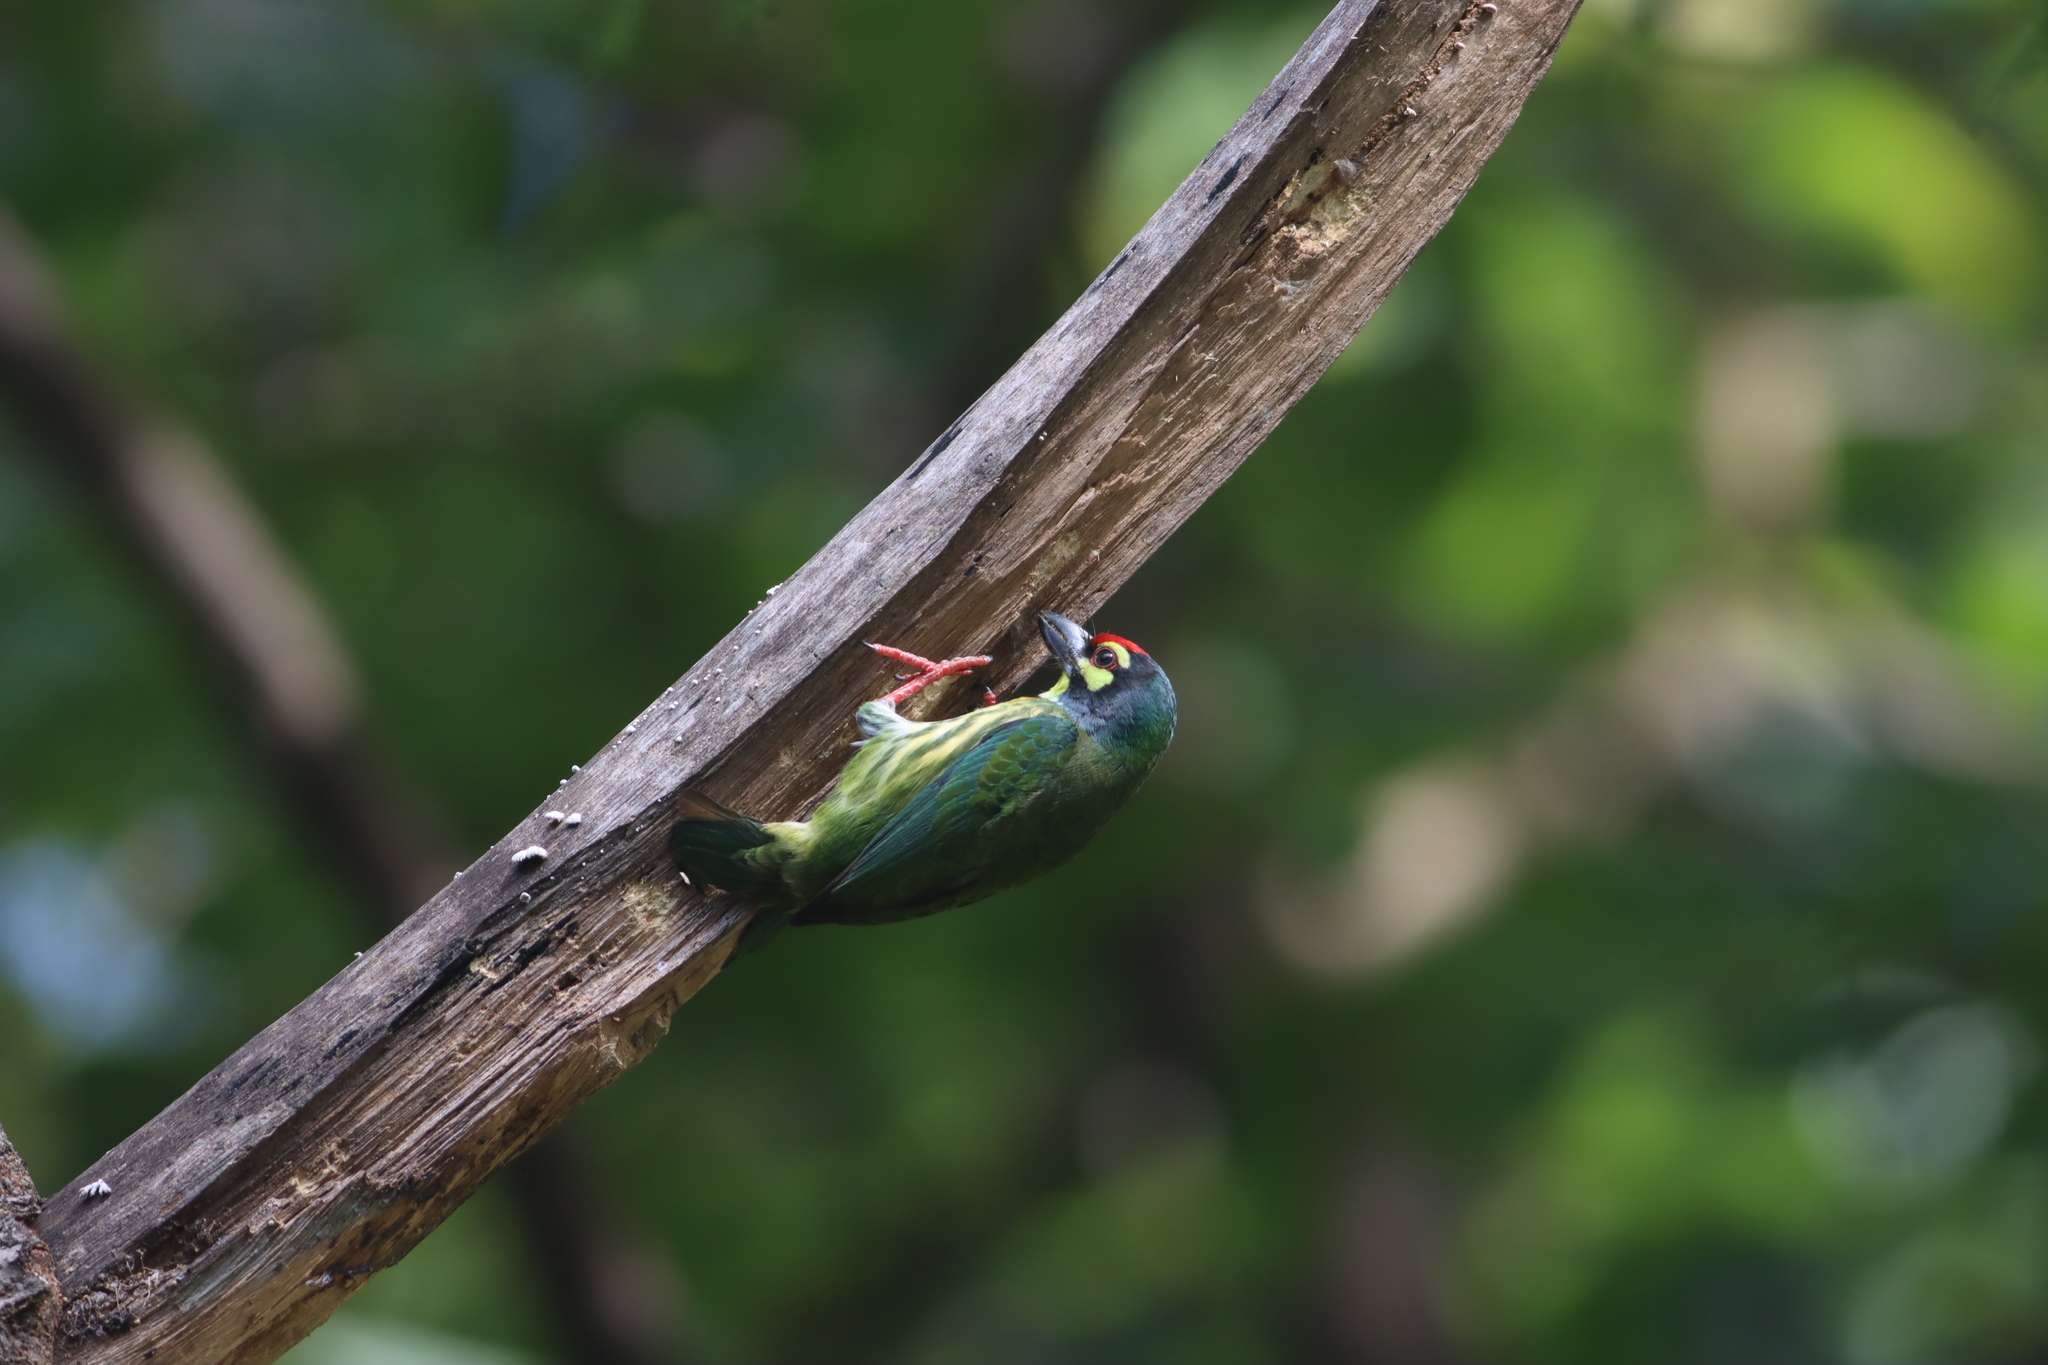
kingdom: Animalia
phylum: Chordata
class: Aves
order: Piciformes
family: Megalaimidae
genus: Psilopogon
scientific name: Psilopogon haemacephalus
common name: Coppersmith barbet
